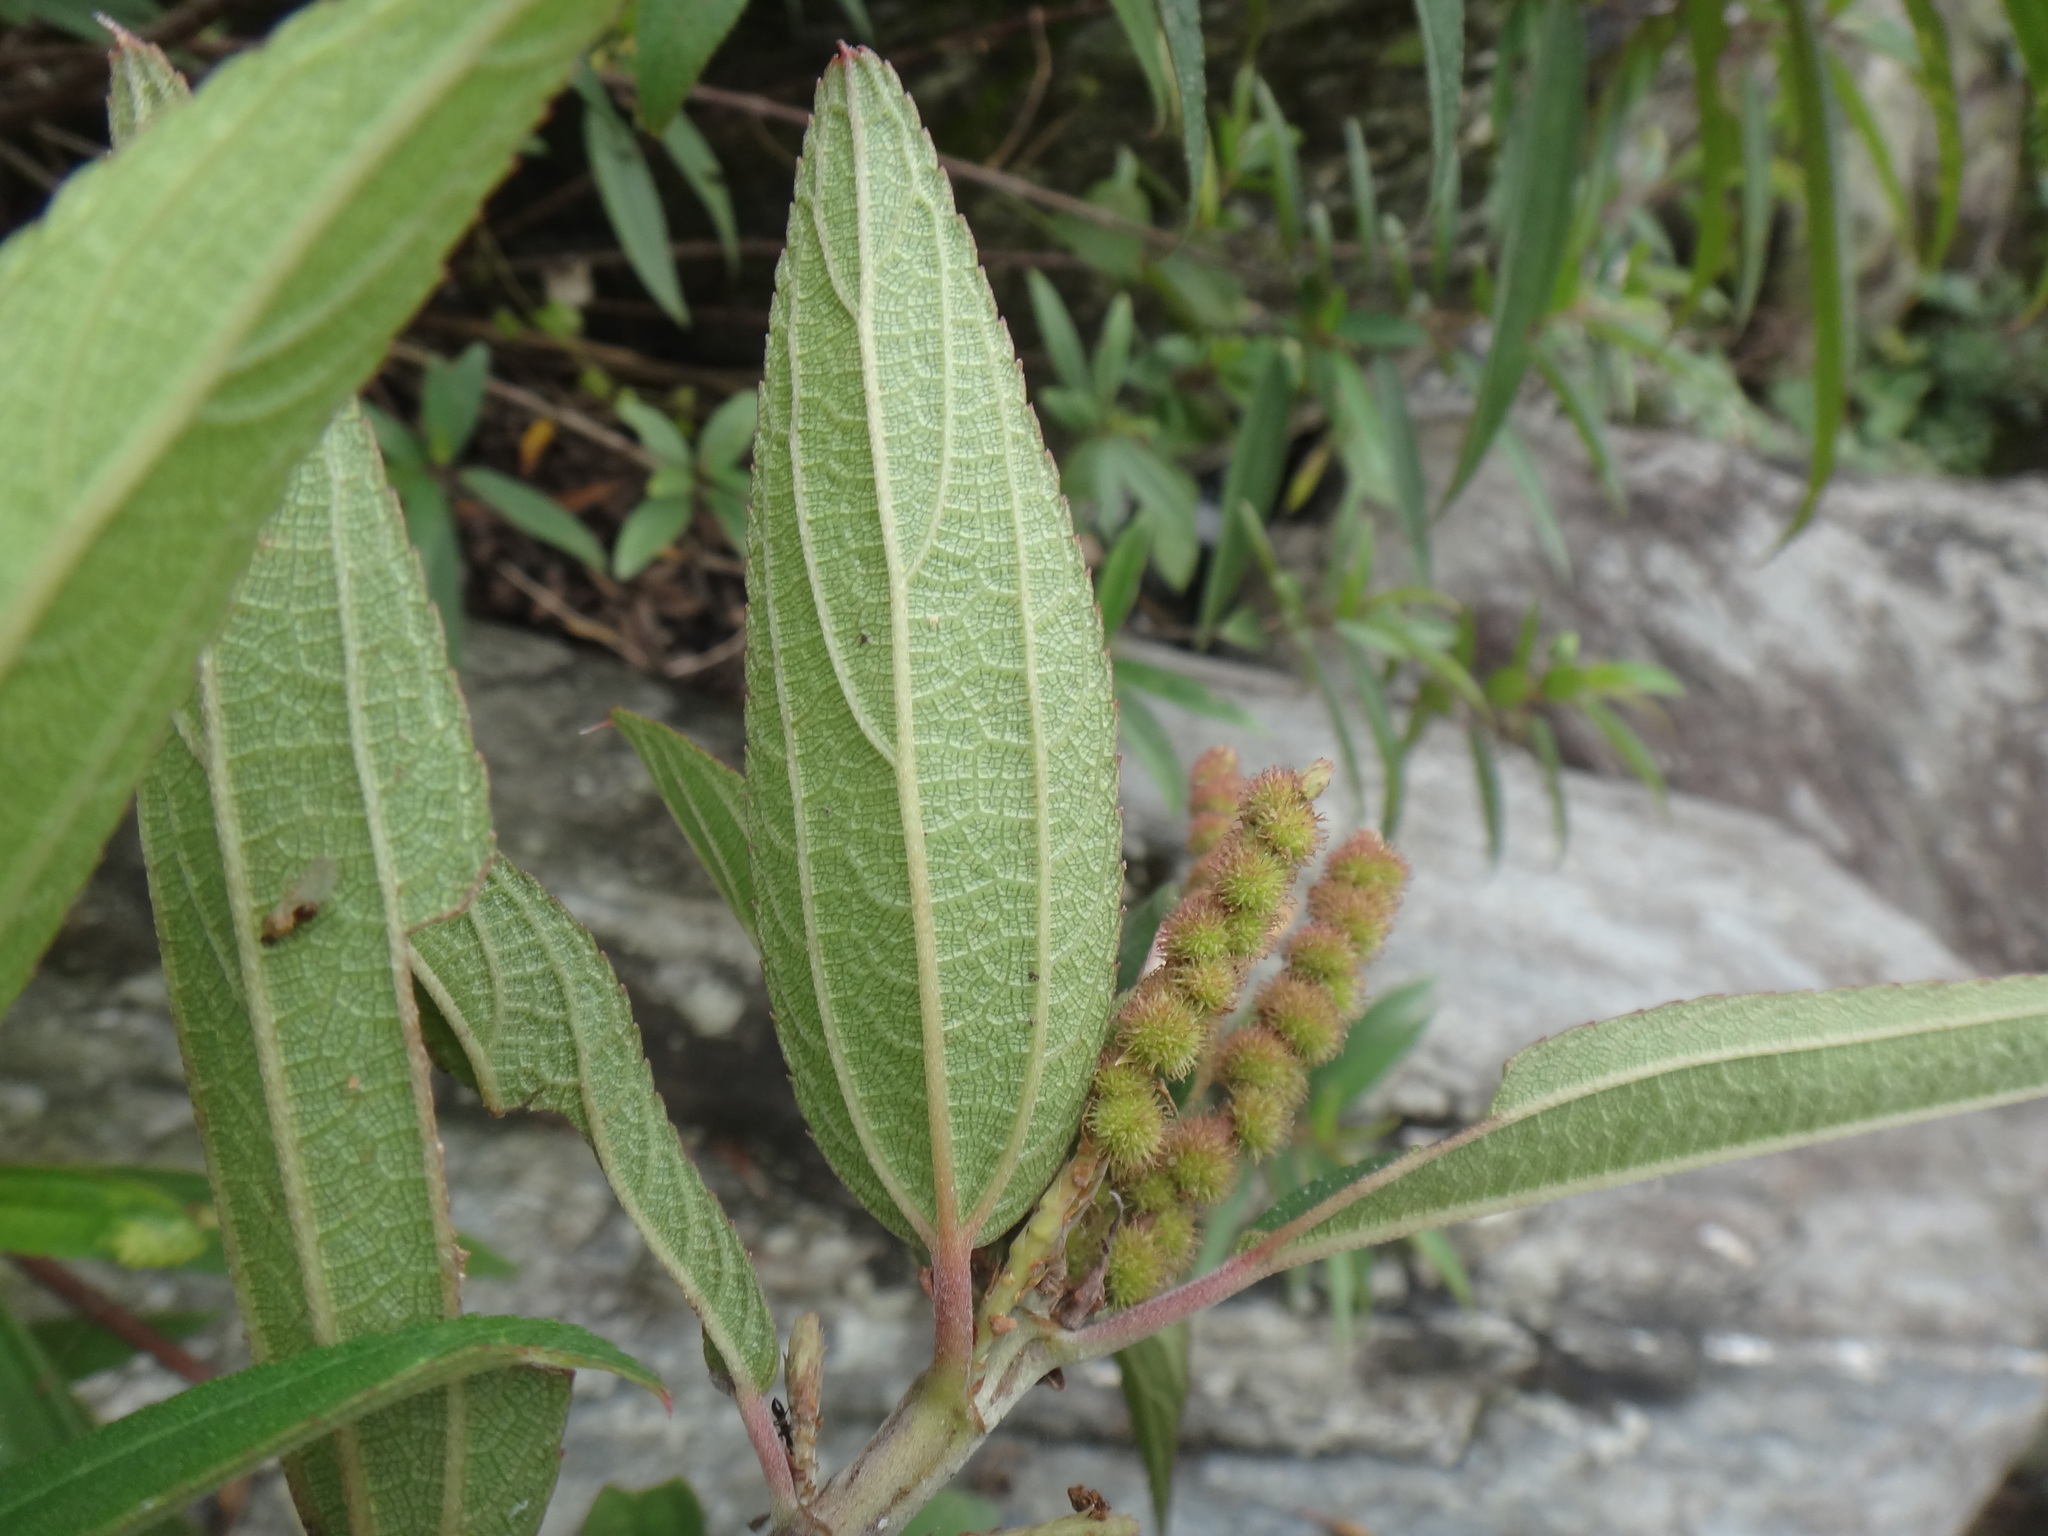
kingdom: Plantae
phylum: Tracheophyta
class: Magnoliopsida
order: Rosales
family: Urticaceae
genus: Boehmeria
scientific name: Boehmeria densiflora
